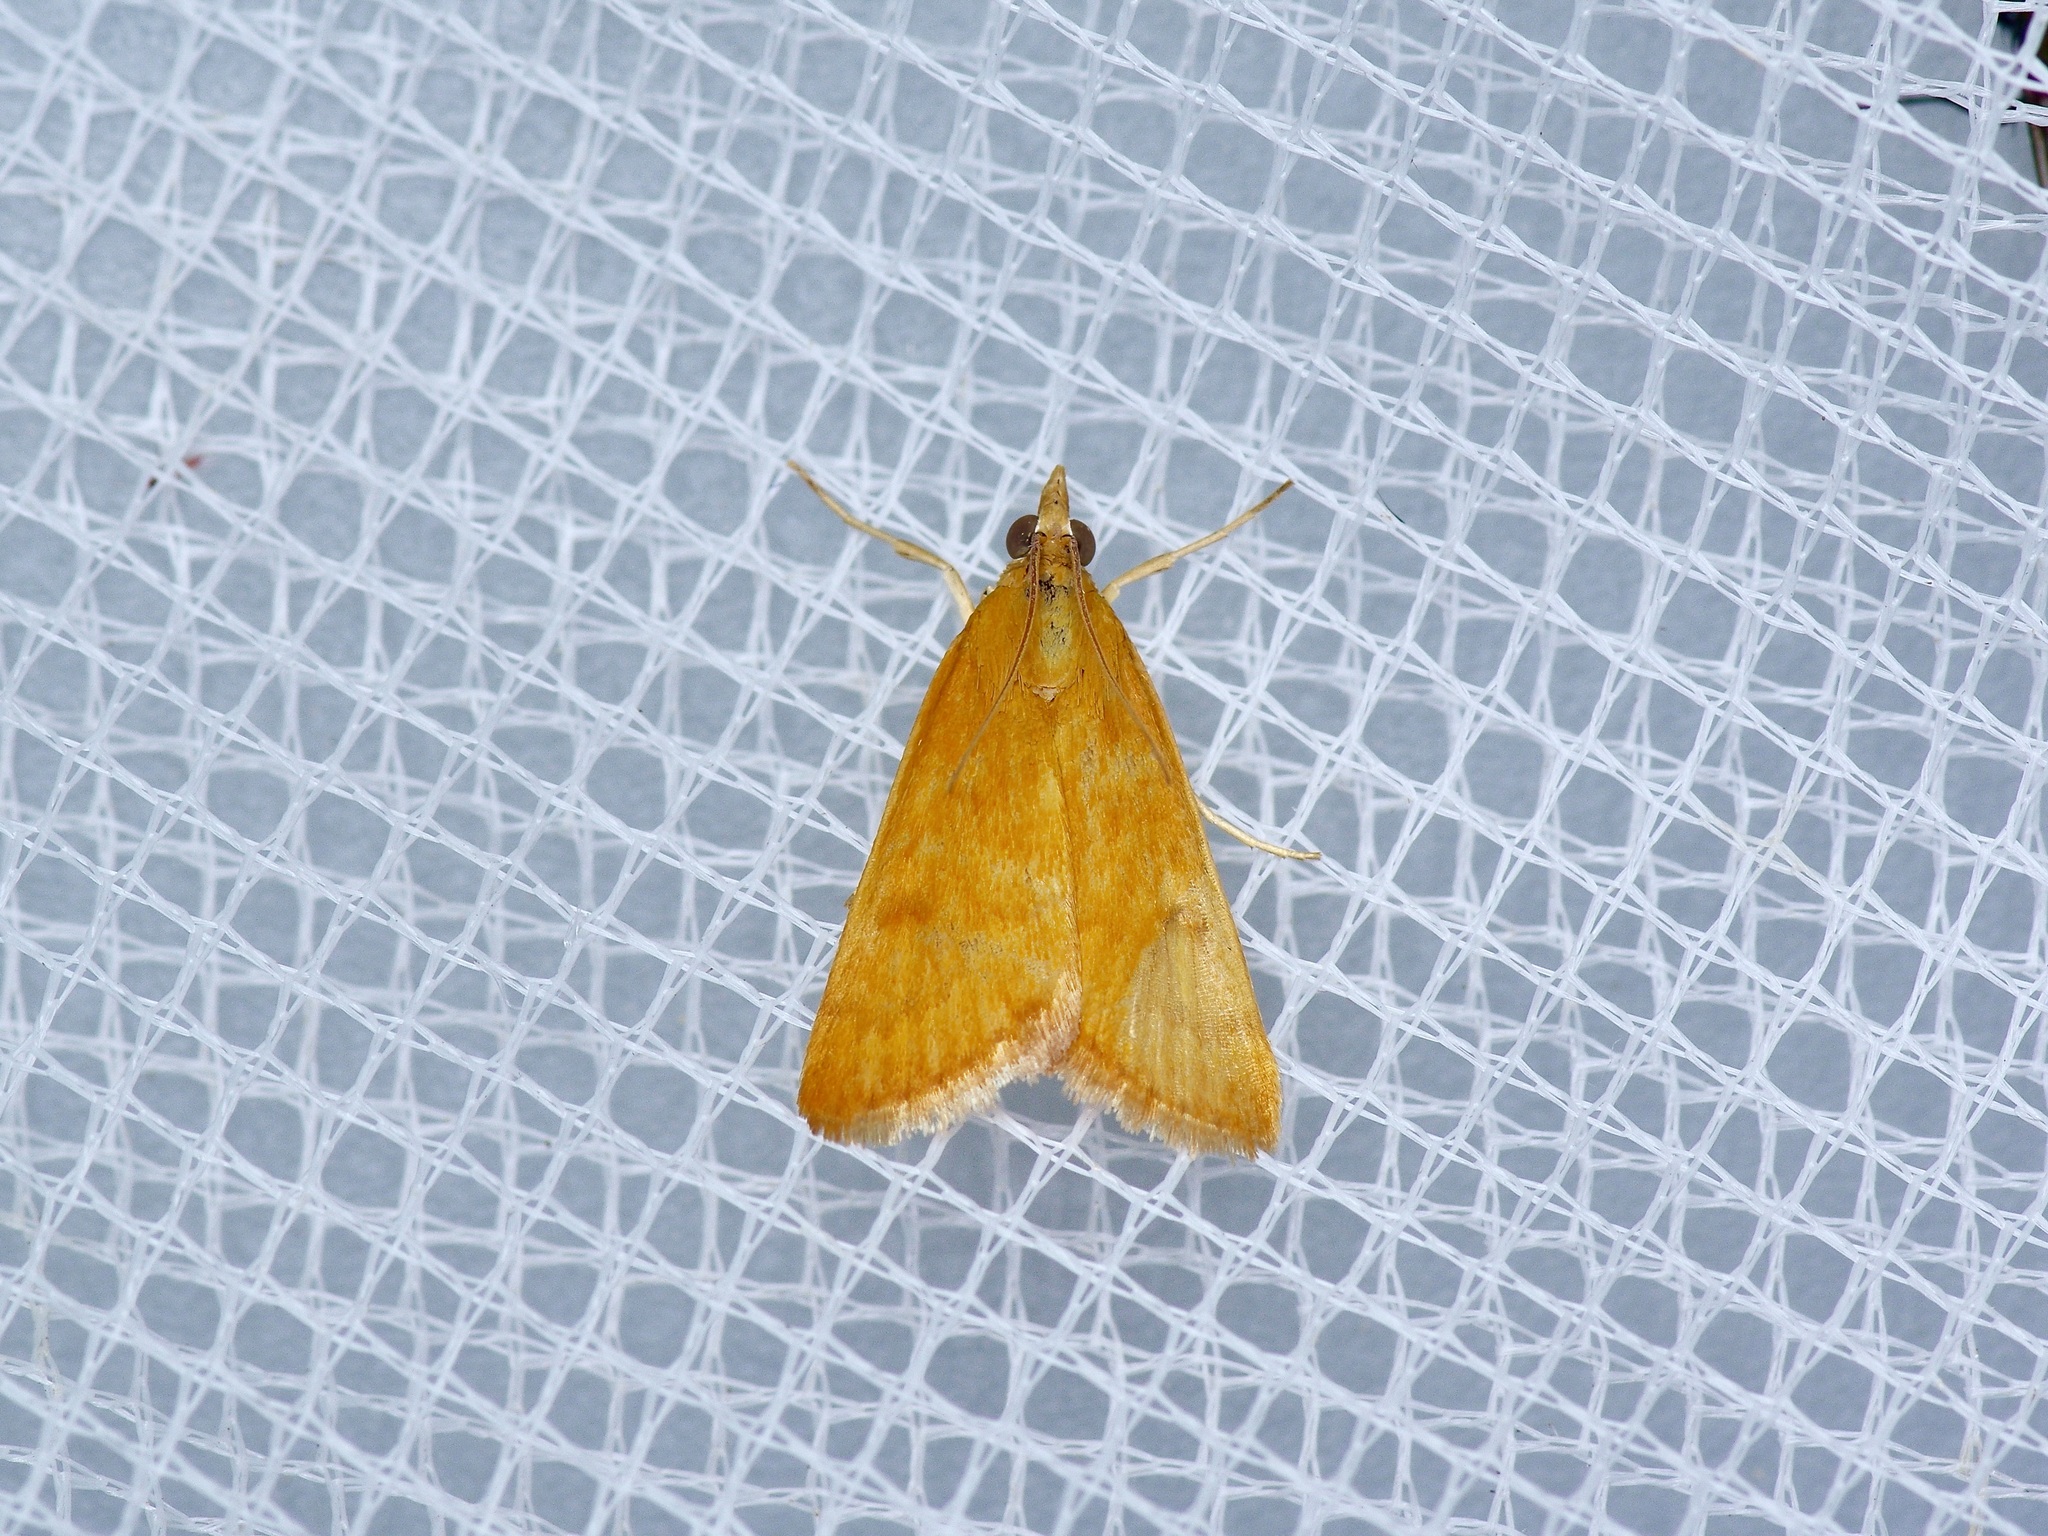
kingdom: Animalia
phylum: Arthropoda
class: Insecta
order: Lepidoptera
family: Crambidae
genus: Achyra
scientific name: Achyra rantalis
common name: Garden webworm
